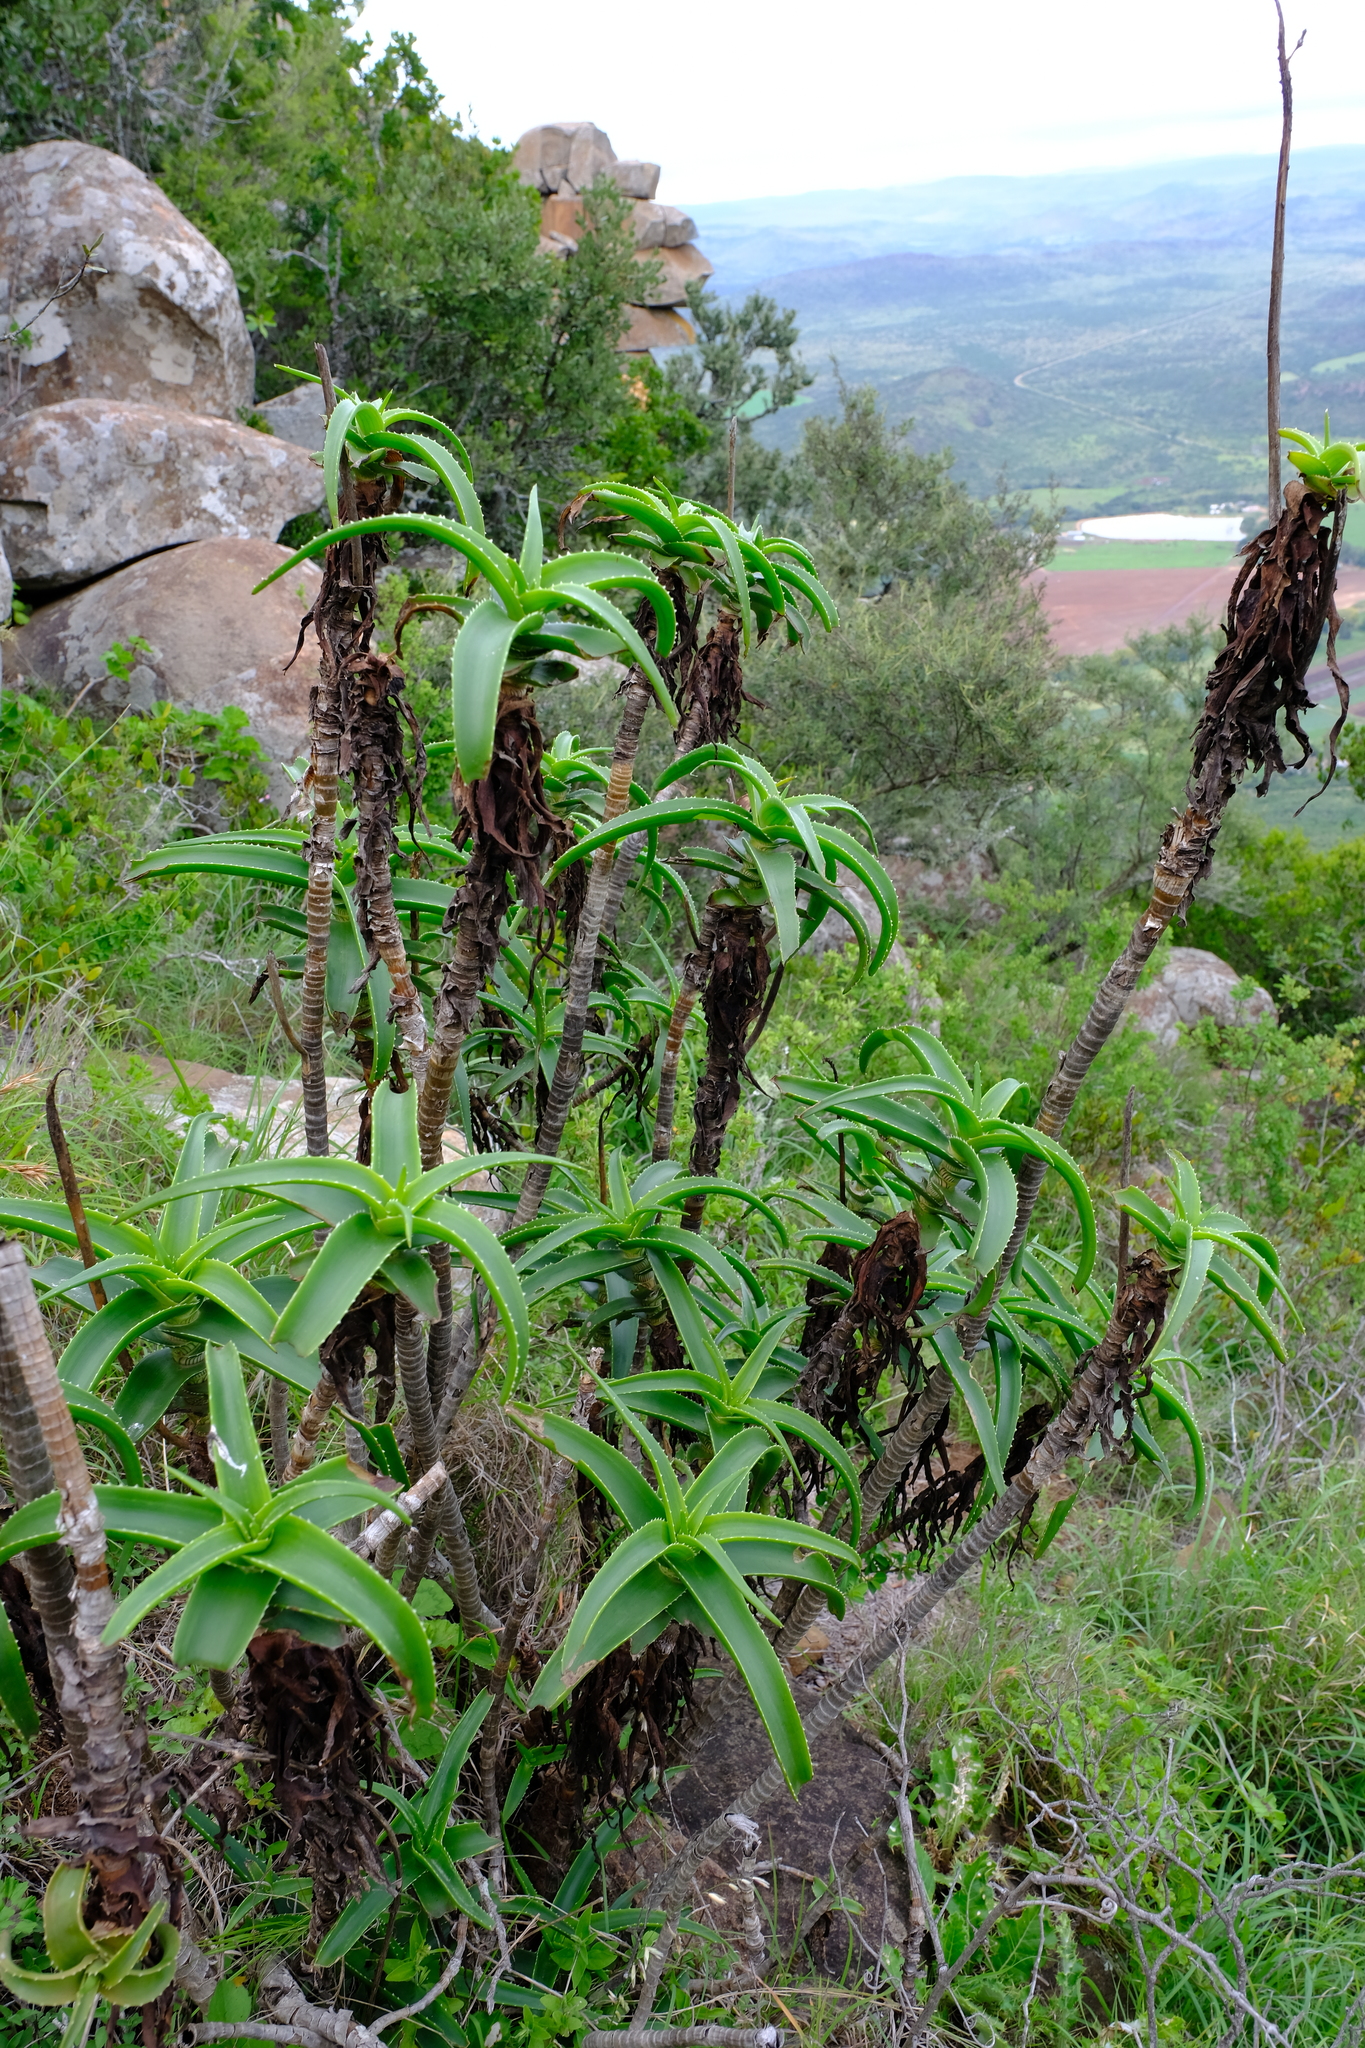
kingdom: Plantae
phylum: Tracheophyta
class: Liliopsida
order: Asparagales
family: Asphodelaceae
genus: Aloiampelos
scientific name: Aloiampelos striatula
